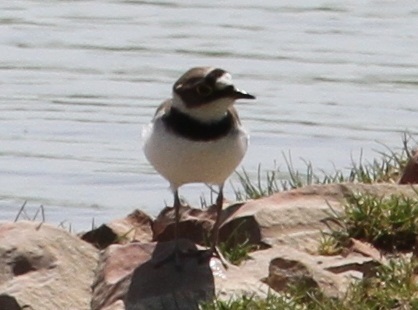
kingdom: Animalia
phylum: Chordata
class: Aves
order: Charadriiformes
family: Charadriidae
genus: Charadrius
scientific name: Charadrius dubius
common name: Little ringed plover
